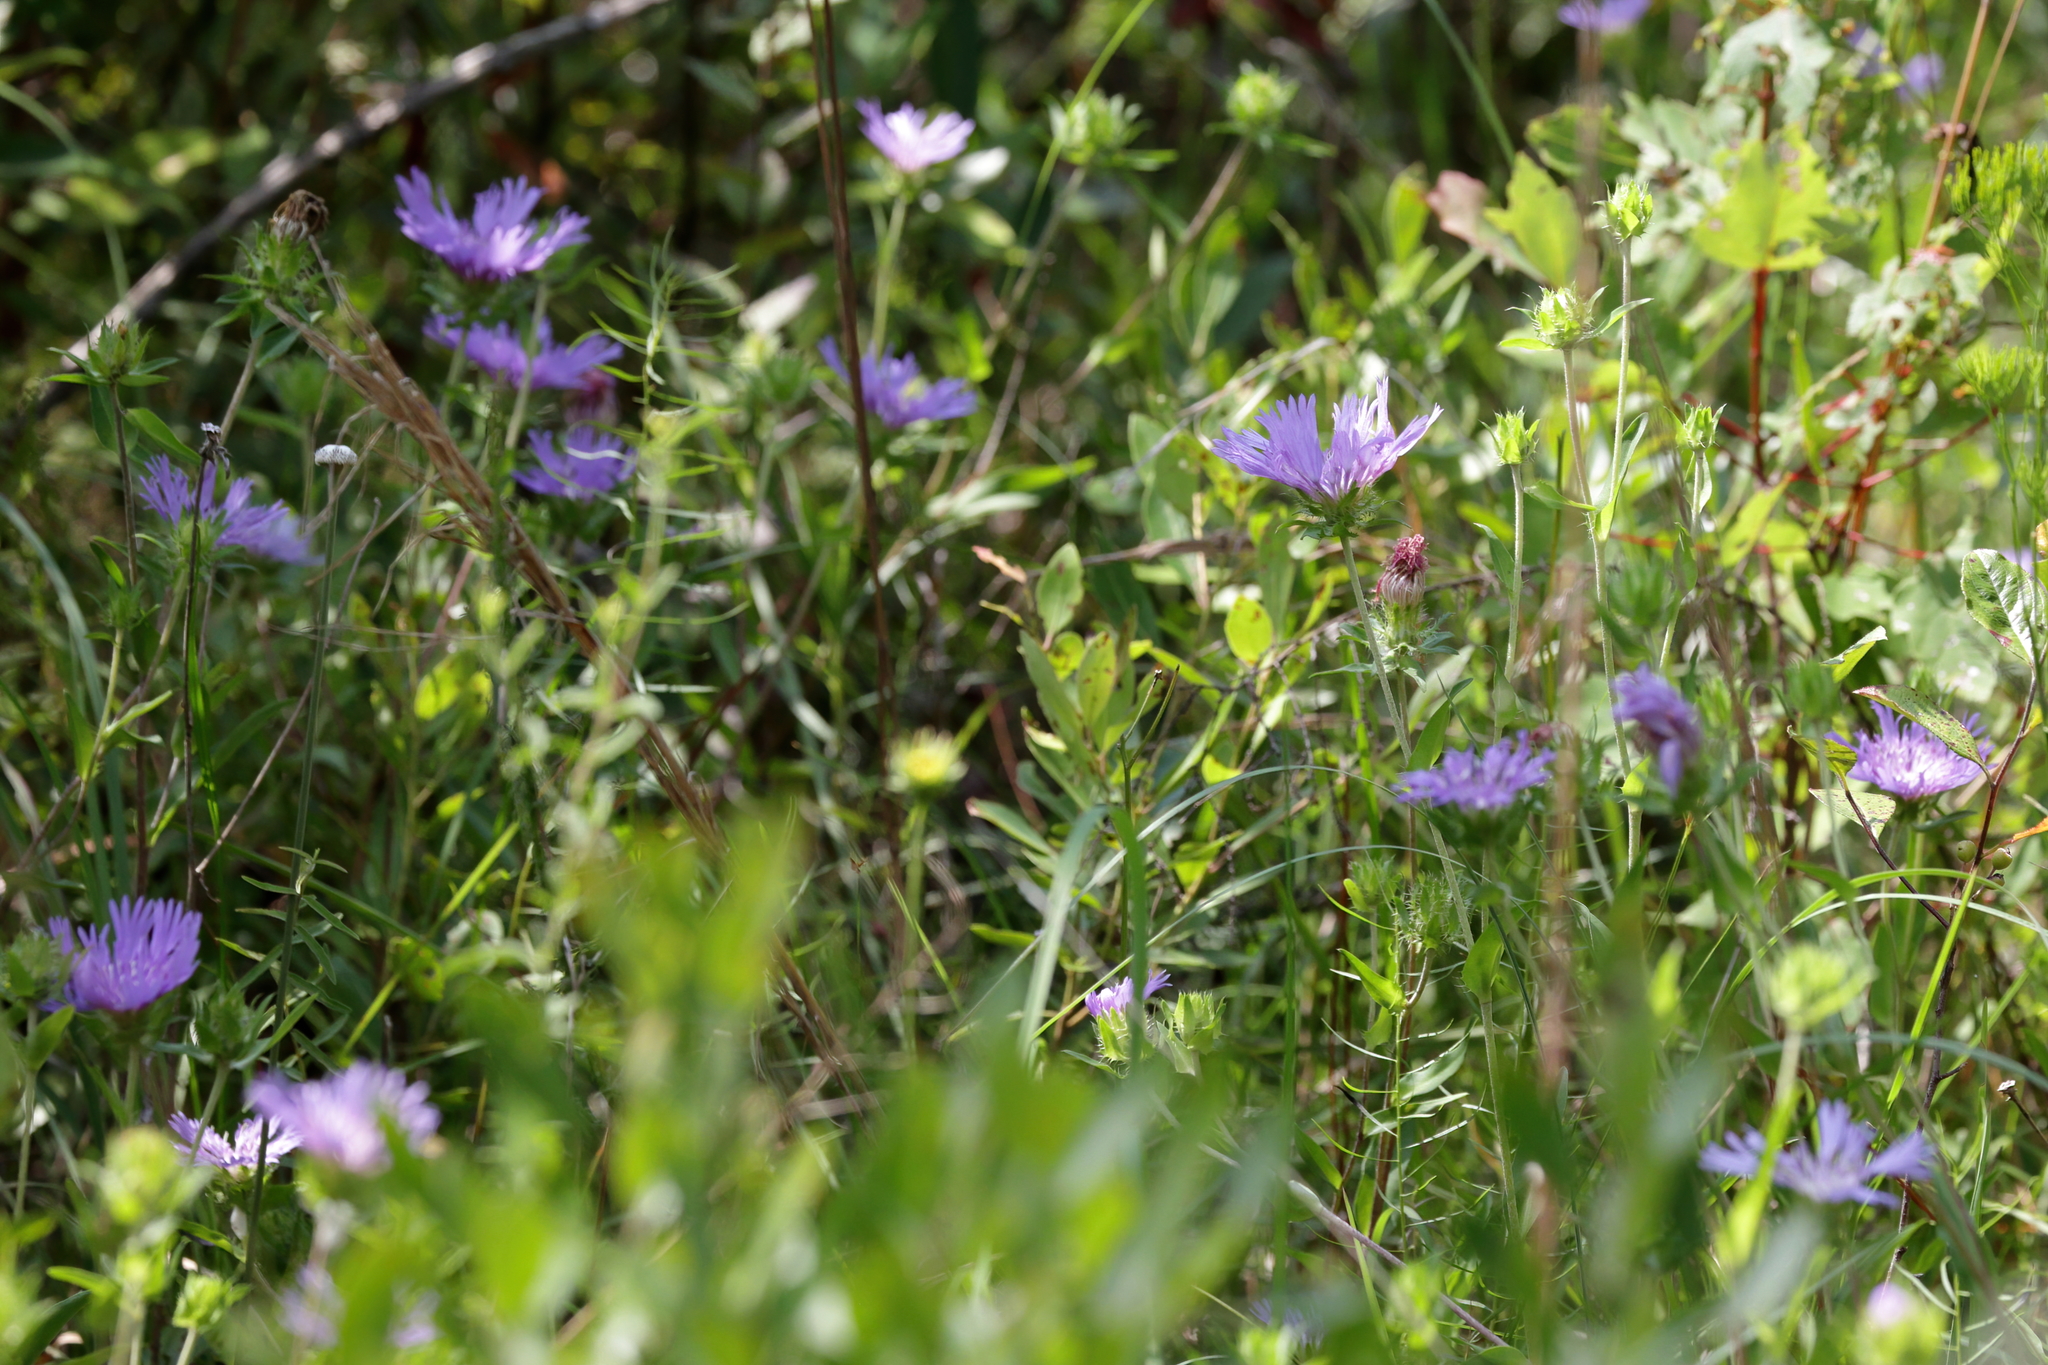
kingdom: Plantae
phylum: Tracheophyta
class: Magnoliopsida
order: Asterales
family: Asteraceae
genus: Stokesia
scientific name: Stokesia laevis
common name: Stokes'-aster
